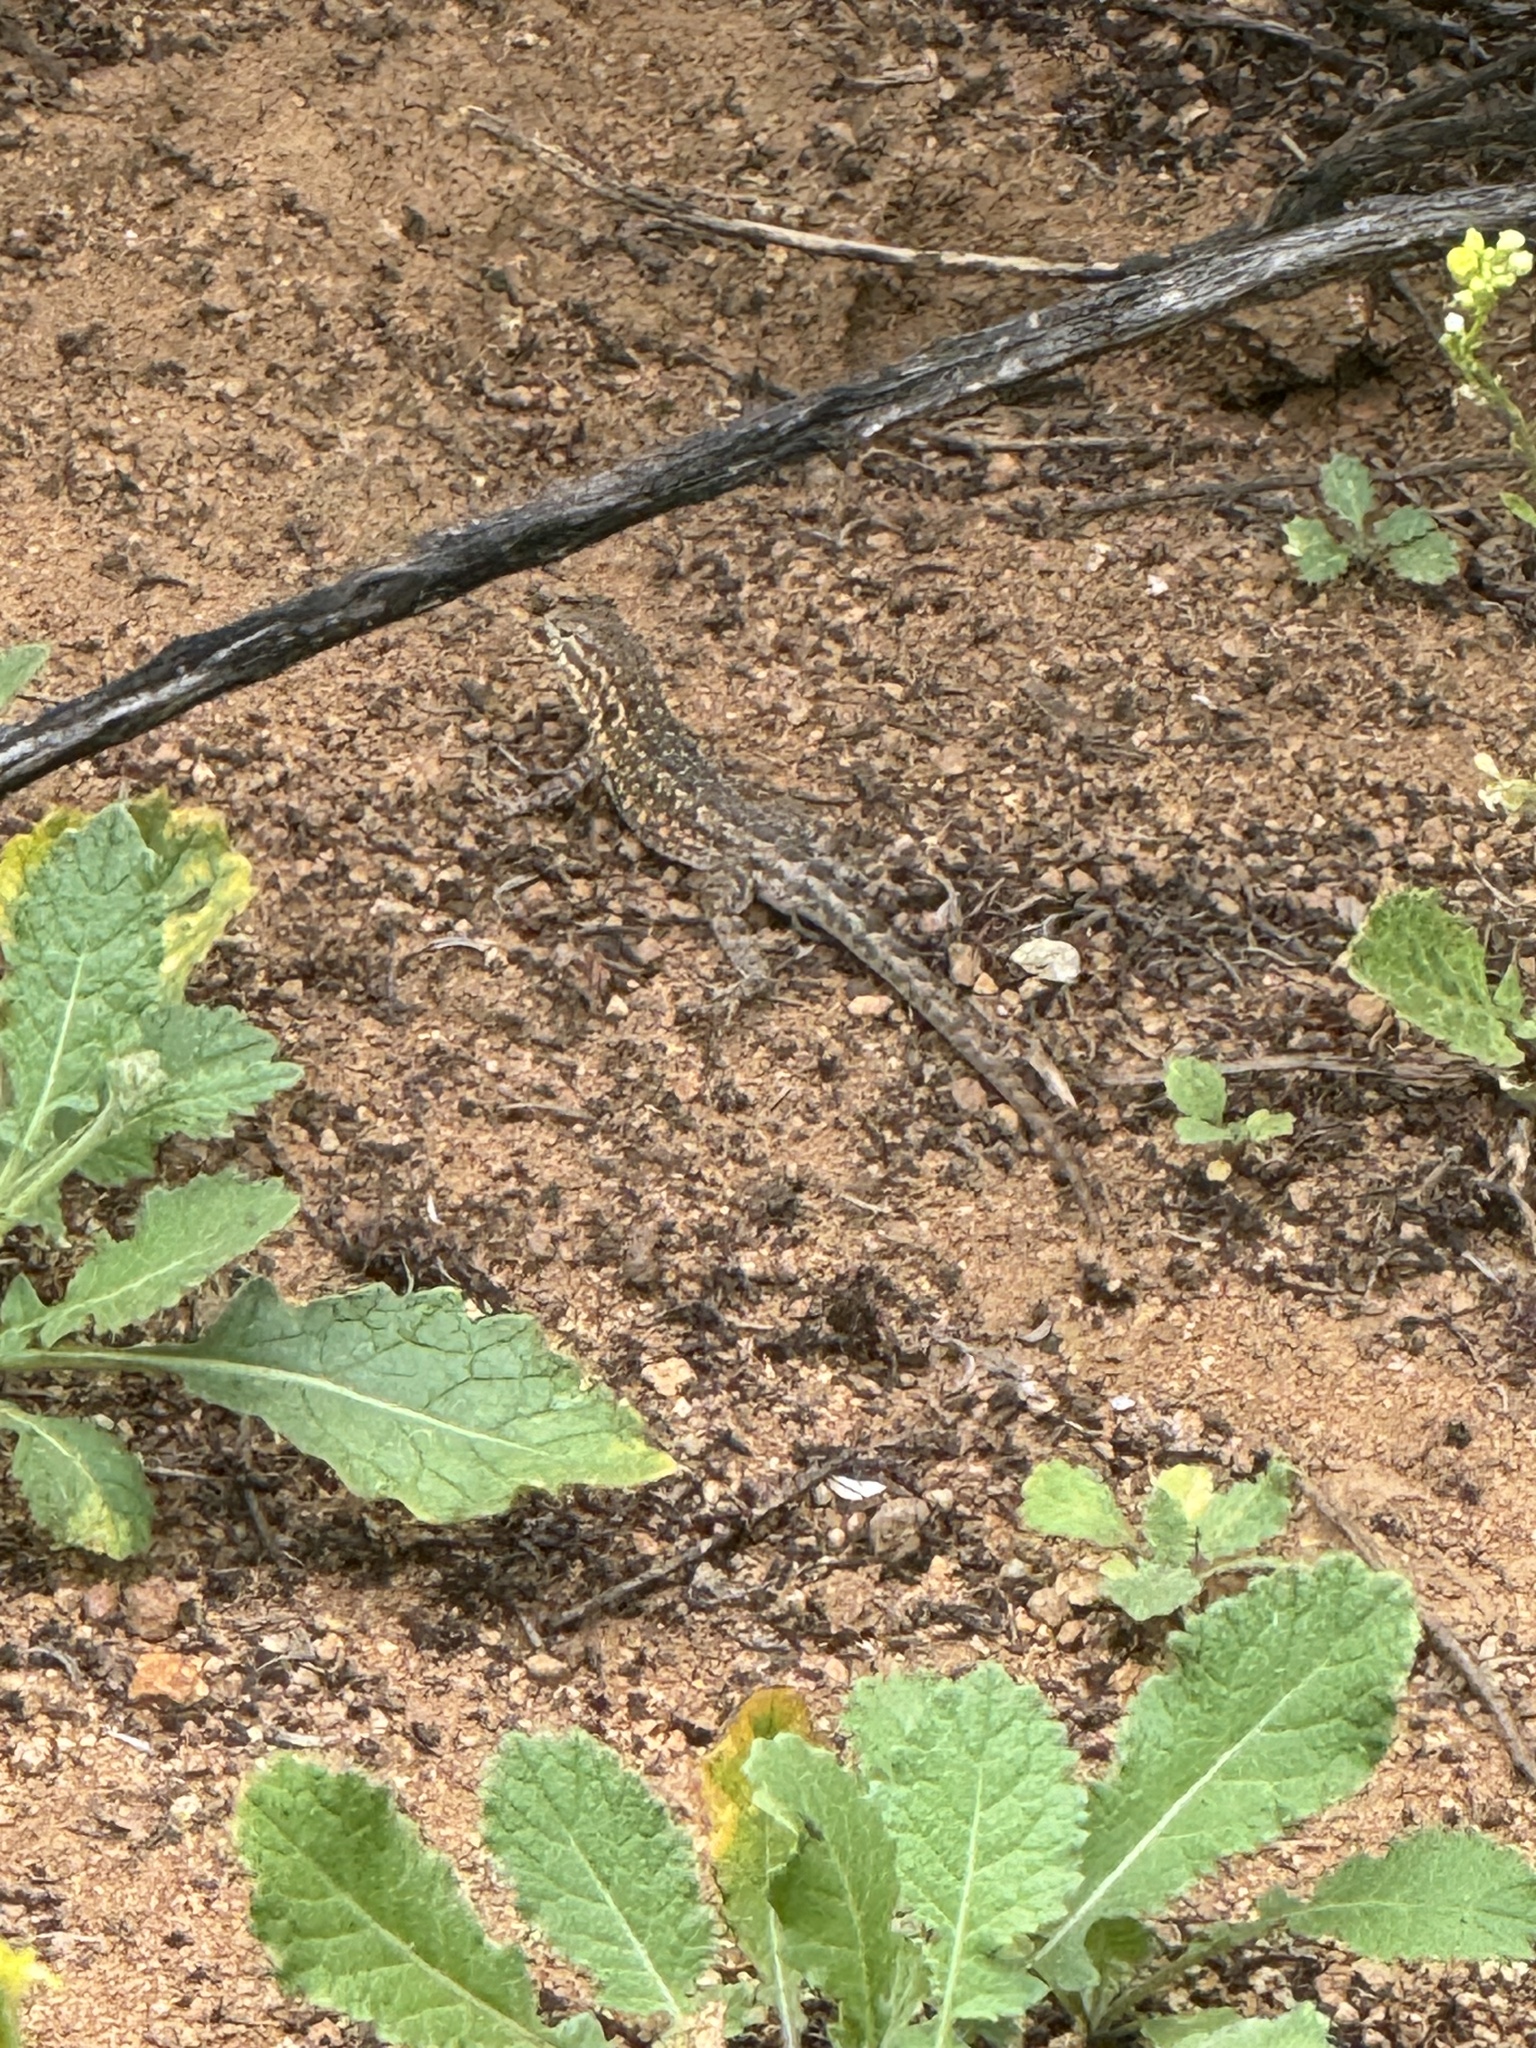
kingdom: Animalia
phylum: Chordata
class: Squamata
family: Phrynosomatidae
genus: Uta
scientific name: Uta stansburiana
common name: Side-blotched lizard
